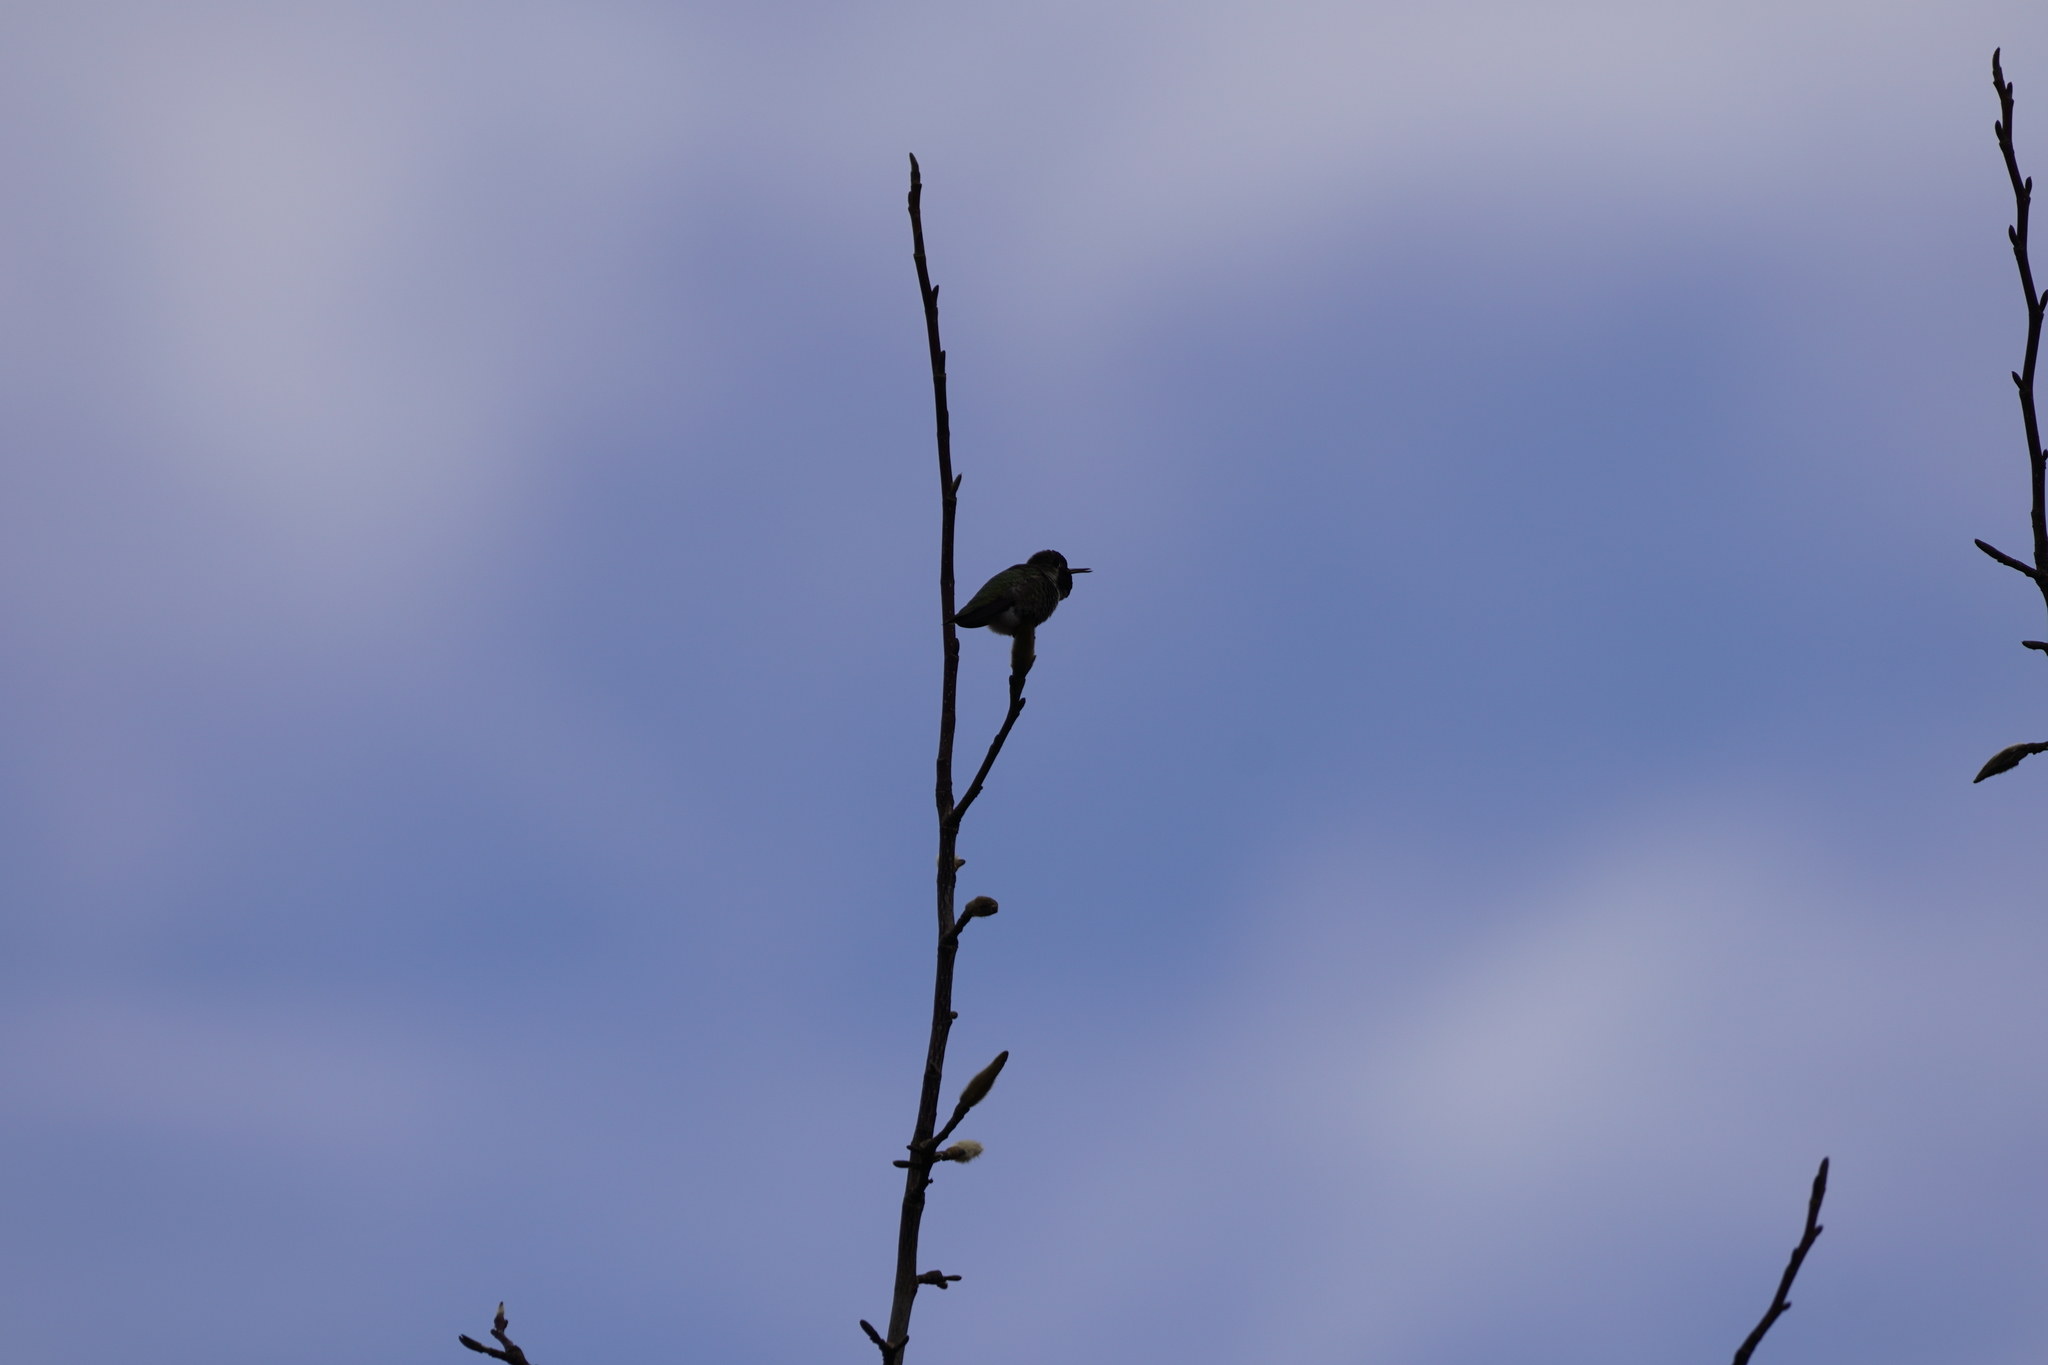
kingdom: Animalia
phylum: Chordata
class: Aves
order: Apodiformes
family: Trochilidae
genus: Calypte
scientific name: Calypte anna
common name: Anna's hummingbird
